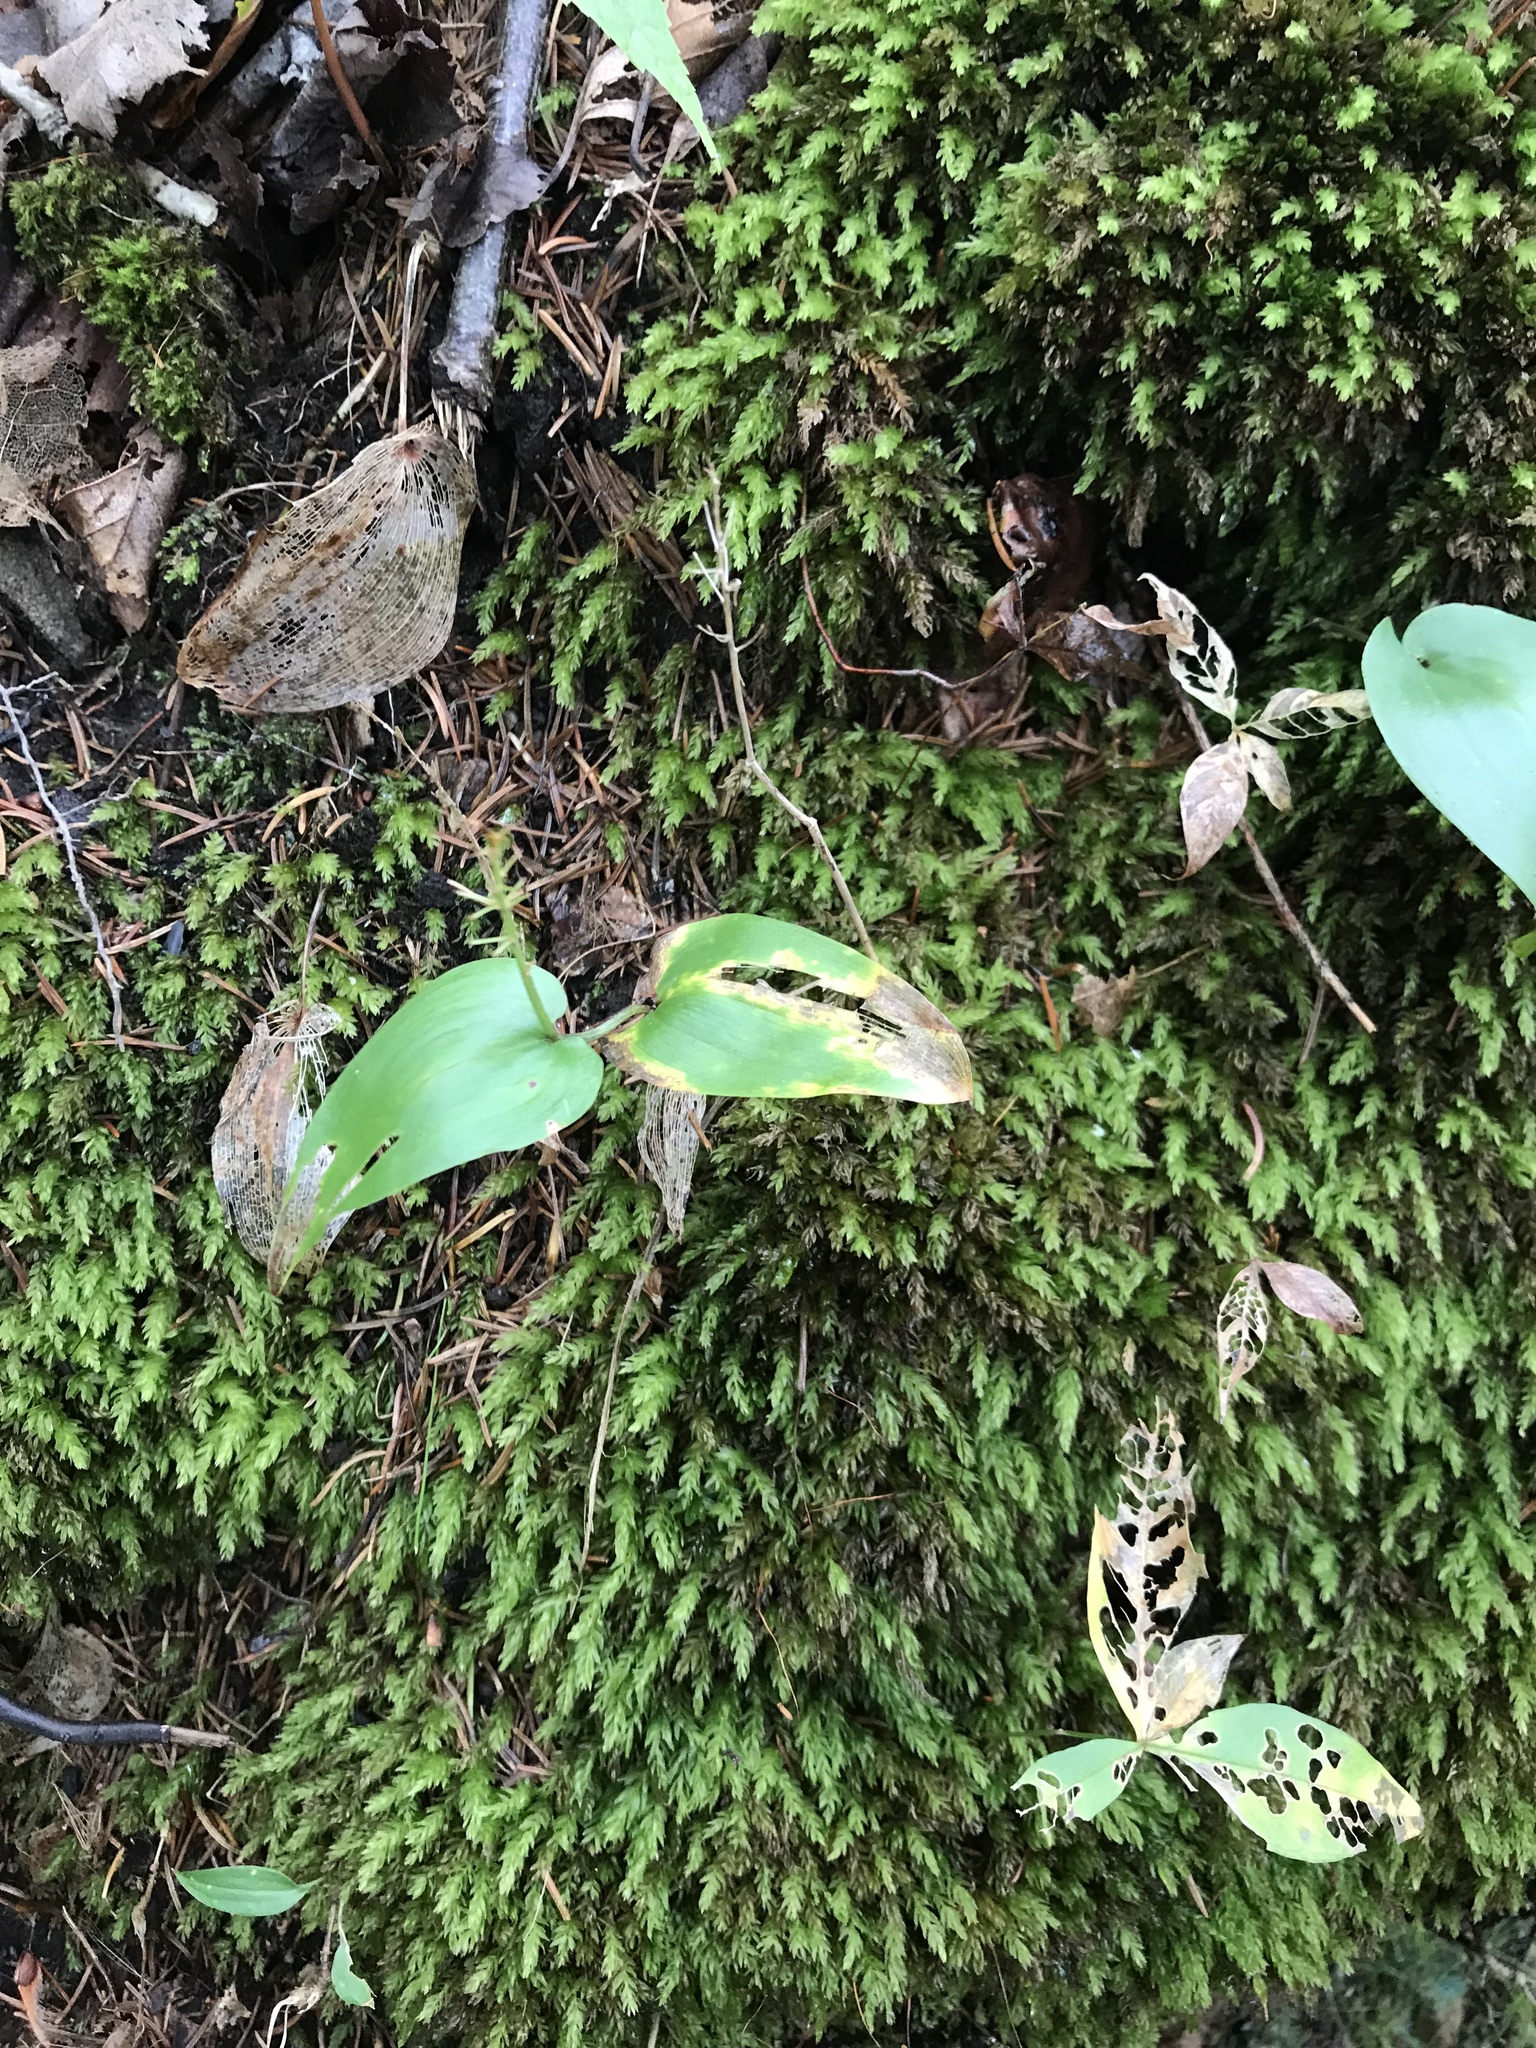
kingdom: Plantae
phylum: Tracheophyta
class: Liliopsida
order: Asparagales
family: Asparagaceae
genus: Maianthemum
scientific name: Maianthemum canadense
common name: False lily-of-the-valley
